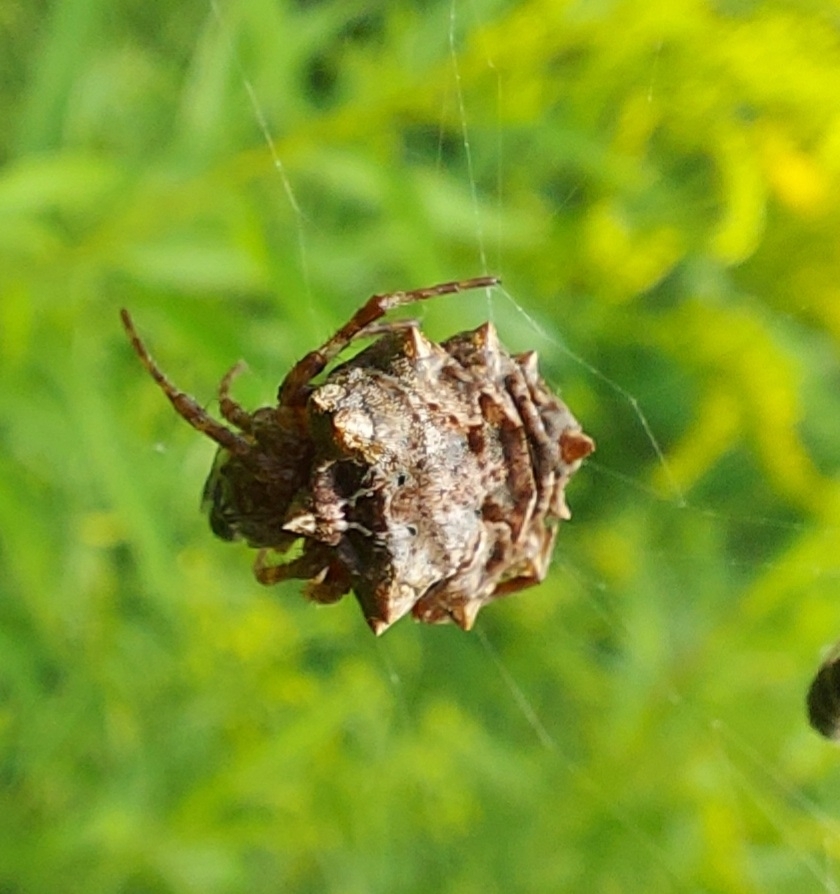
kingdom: Animalia
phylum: Arthropoda
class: Arachnida
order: Araneae
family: Araneidae
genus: Acanthepeira
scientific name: Acanthepeira stellata
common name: Starbellied orbweaver
